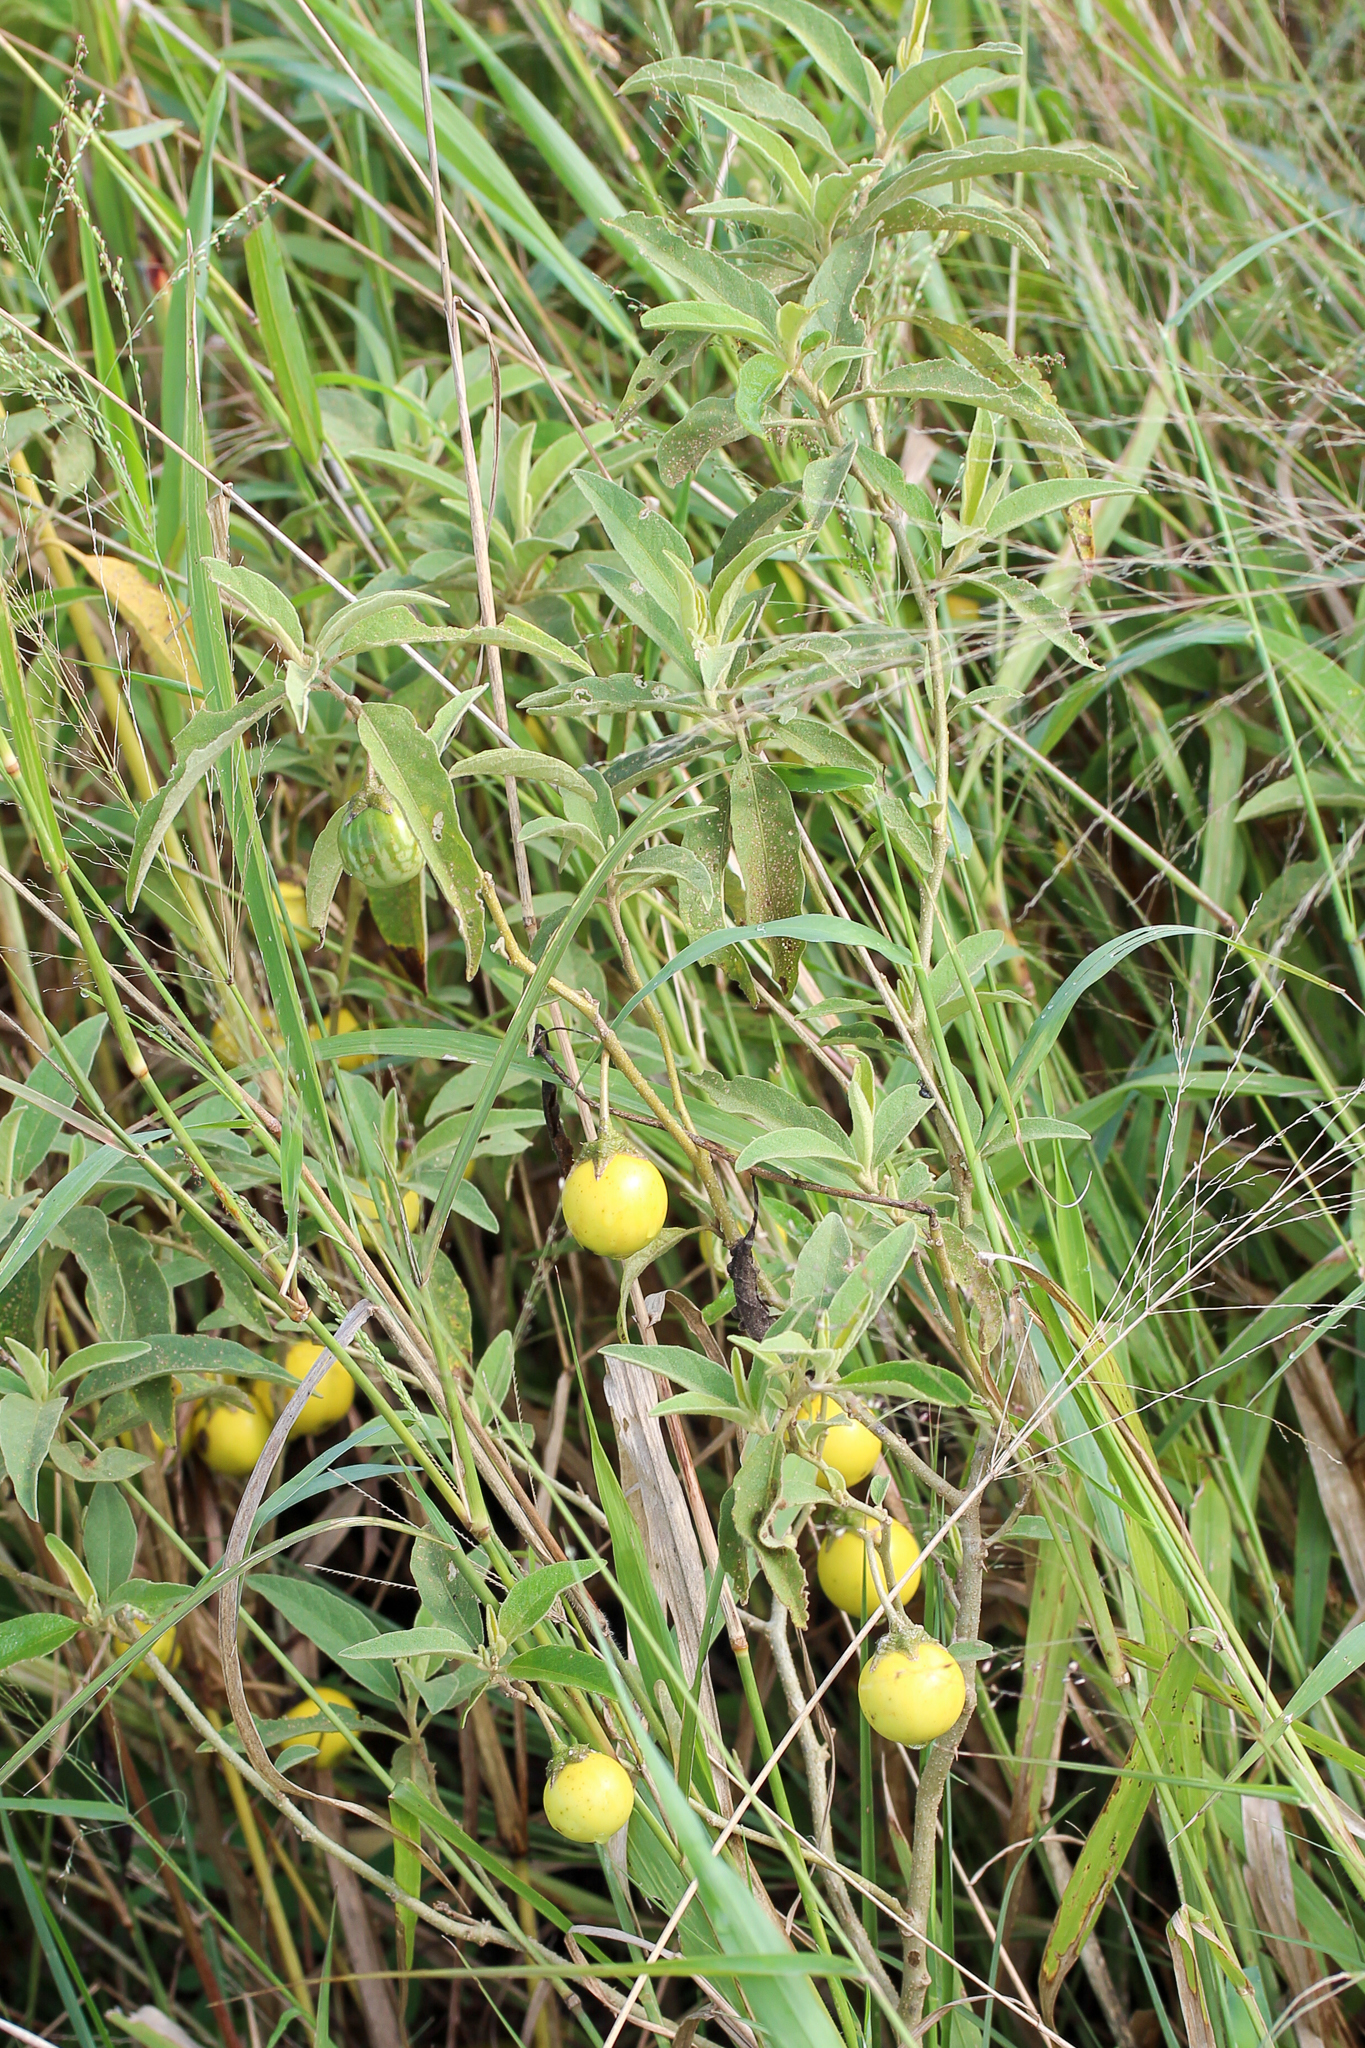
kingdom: Plantae
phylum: Tracheophyta
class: Magnoliopsida
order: Solanales
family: Solanaceae
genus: Solanum
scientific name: Solanum campylacanthum
